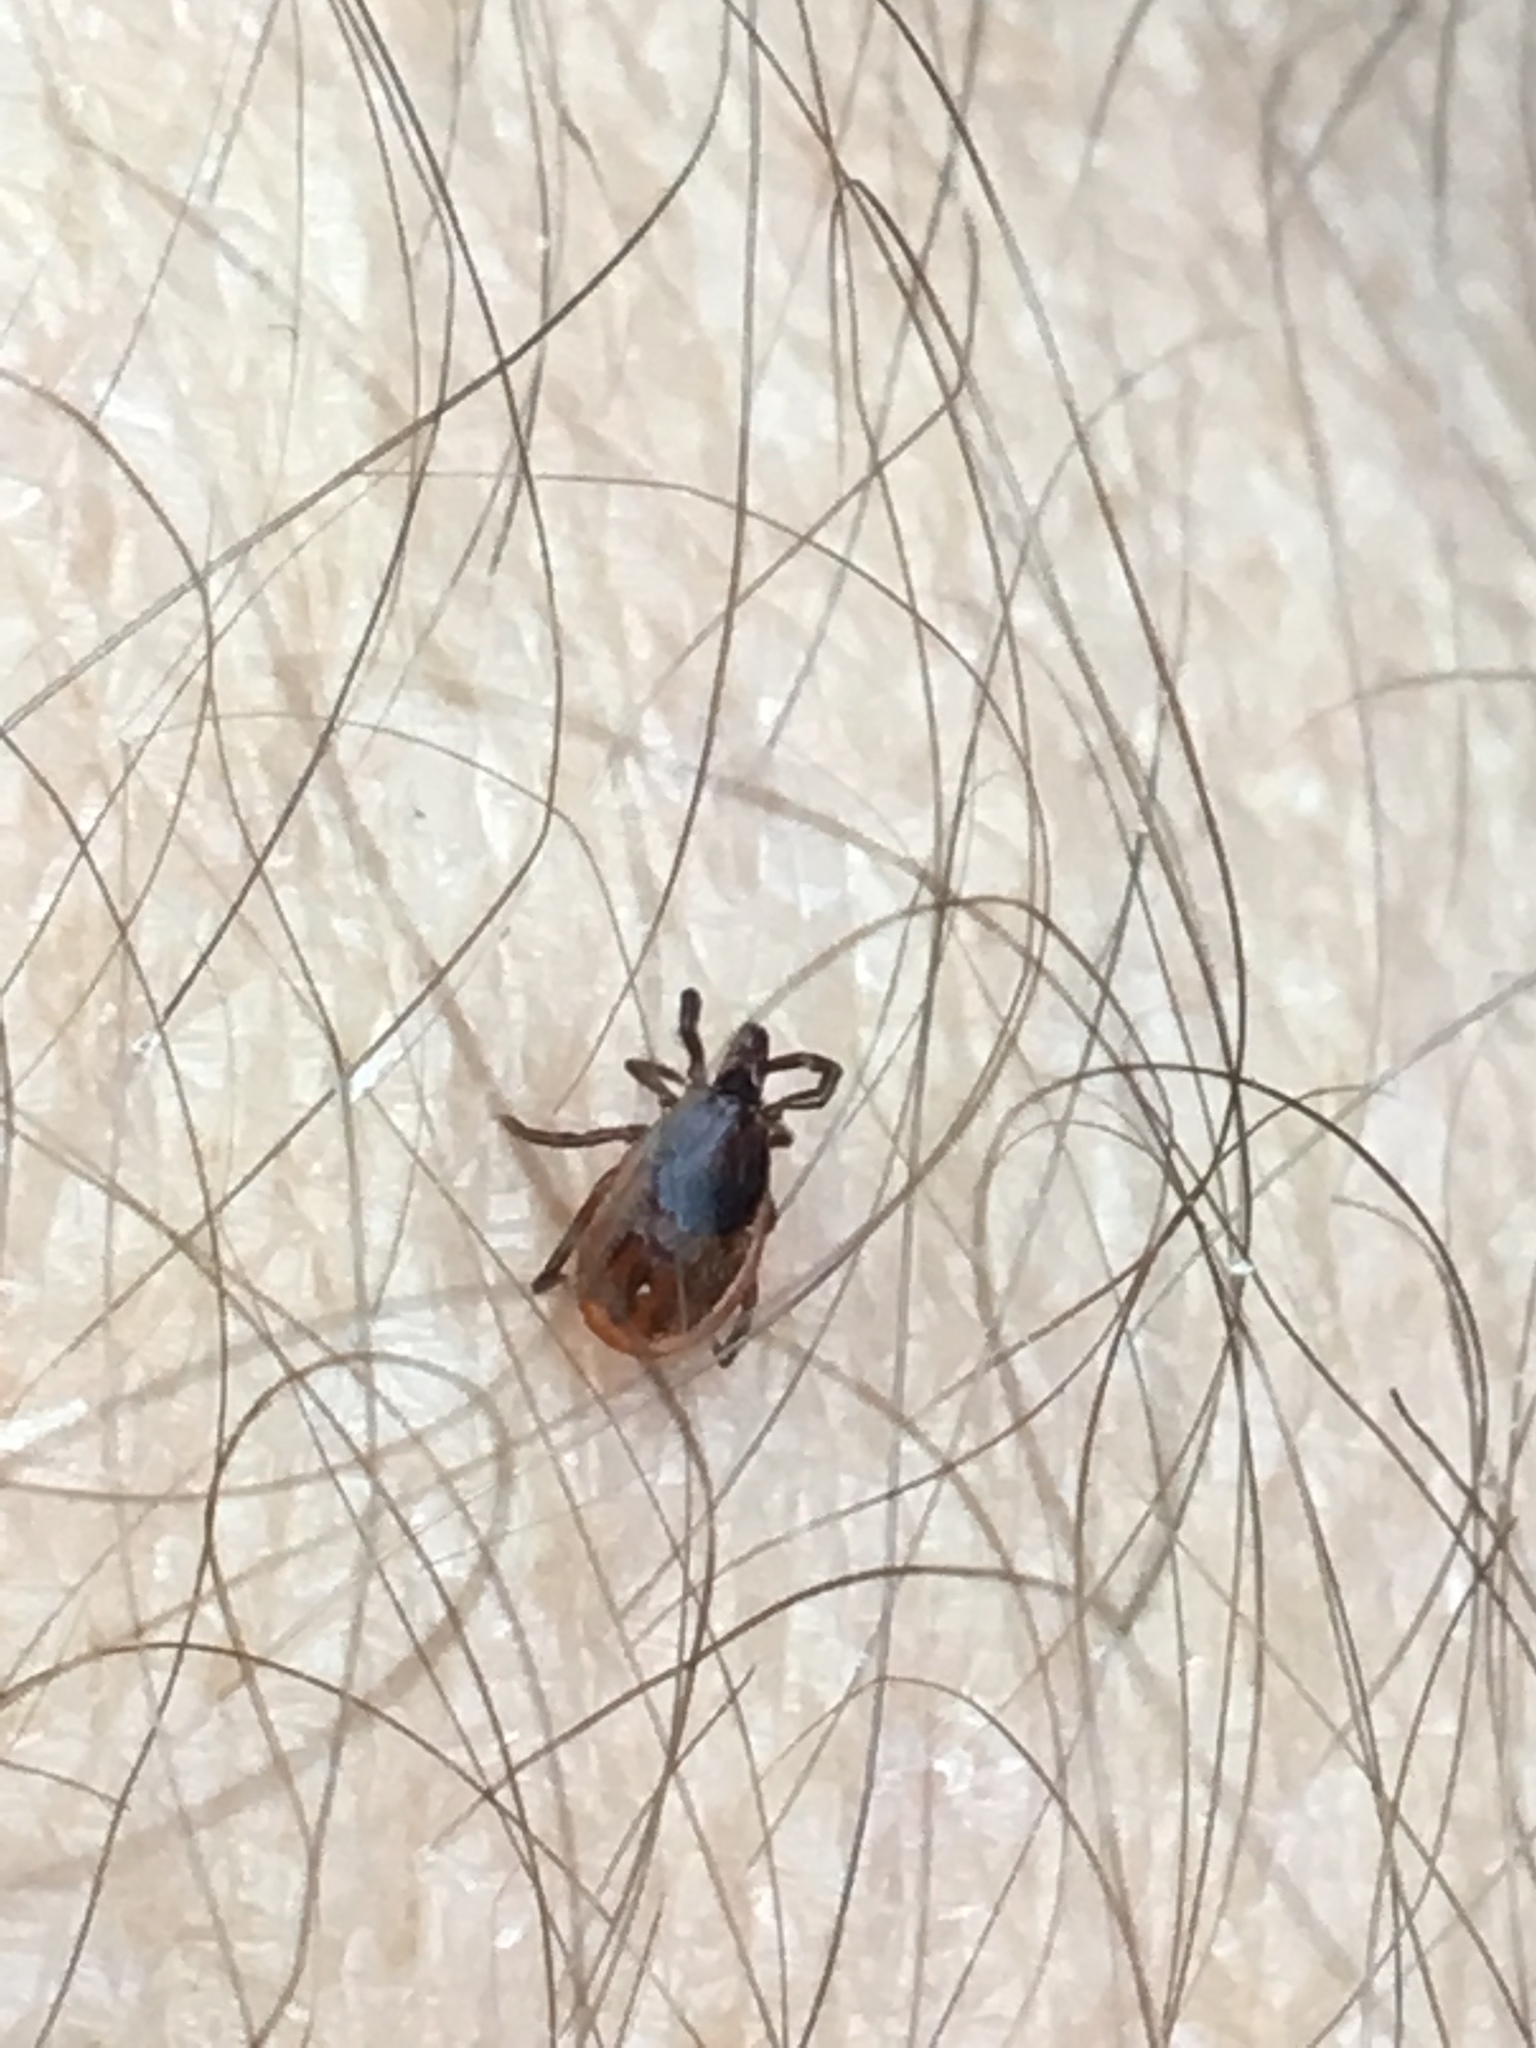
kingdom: Animalia
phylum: Arthropoda
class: Arachnida
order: Ixodida
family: Ixodidae
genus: Ixodes
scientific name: Ixodes scapularis
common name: Black legged tick
